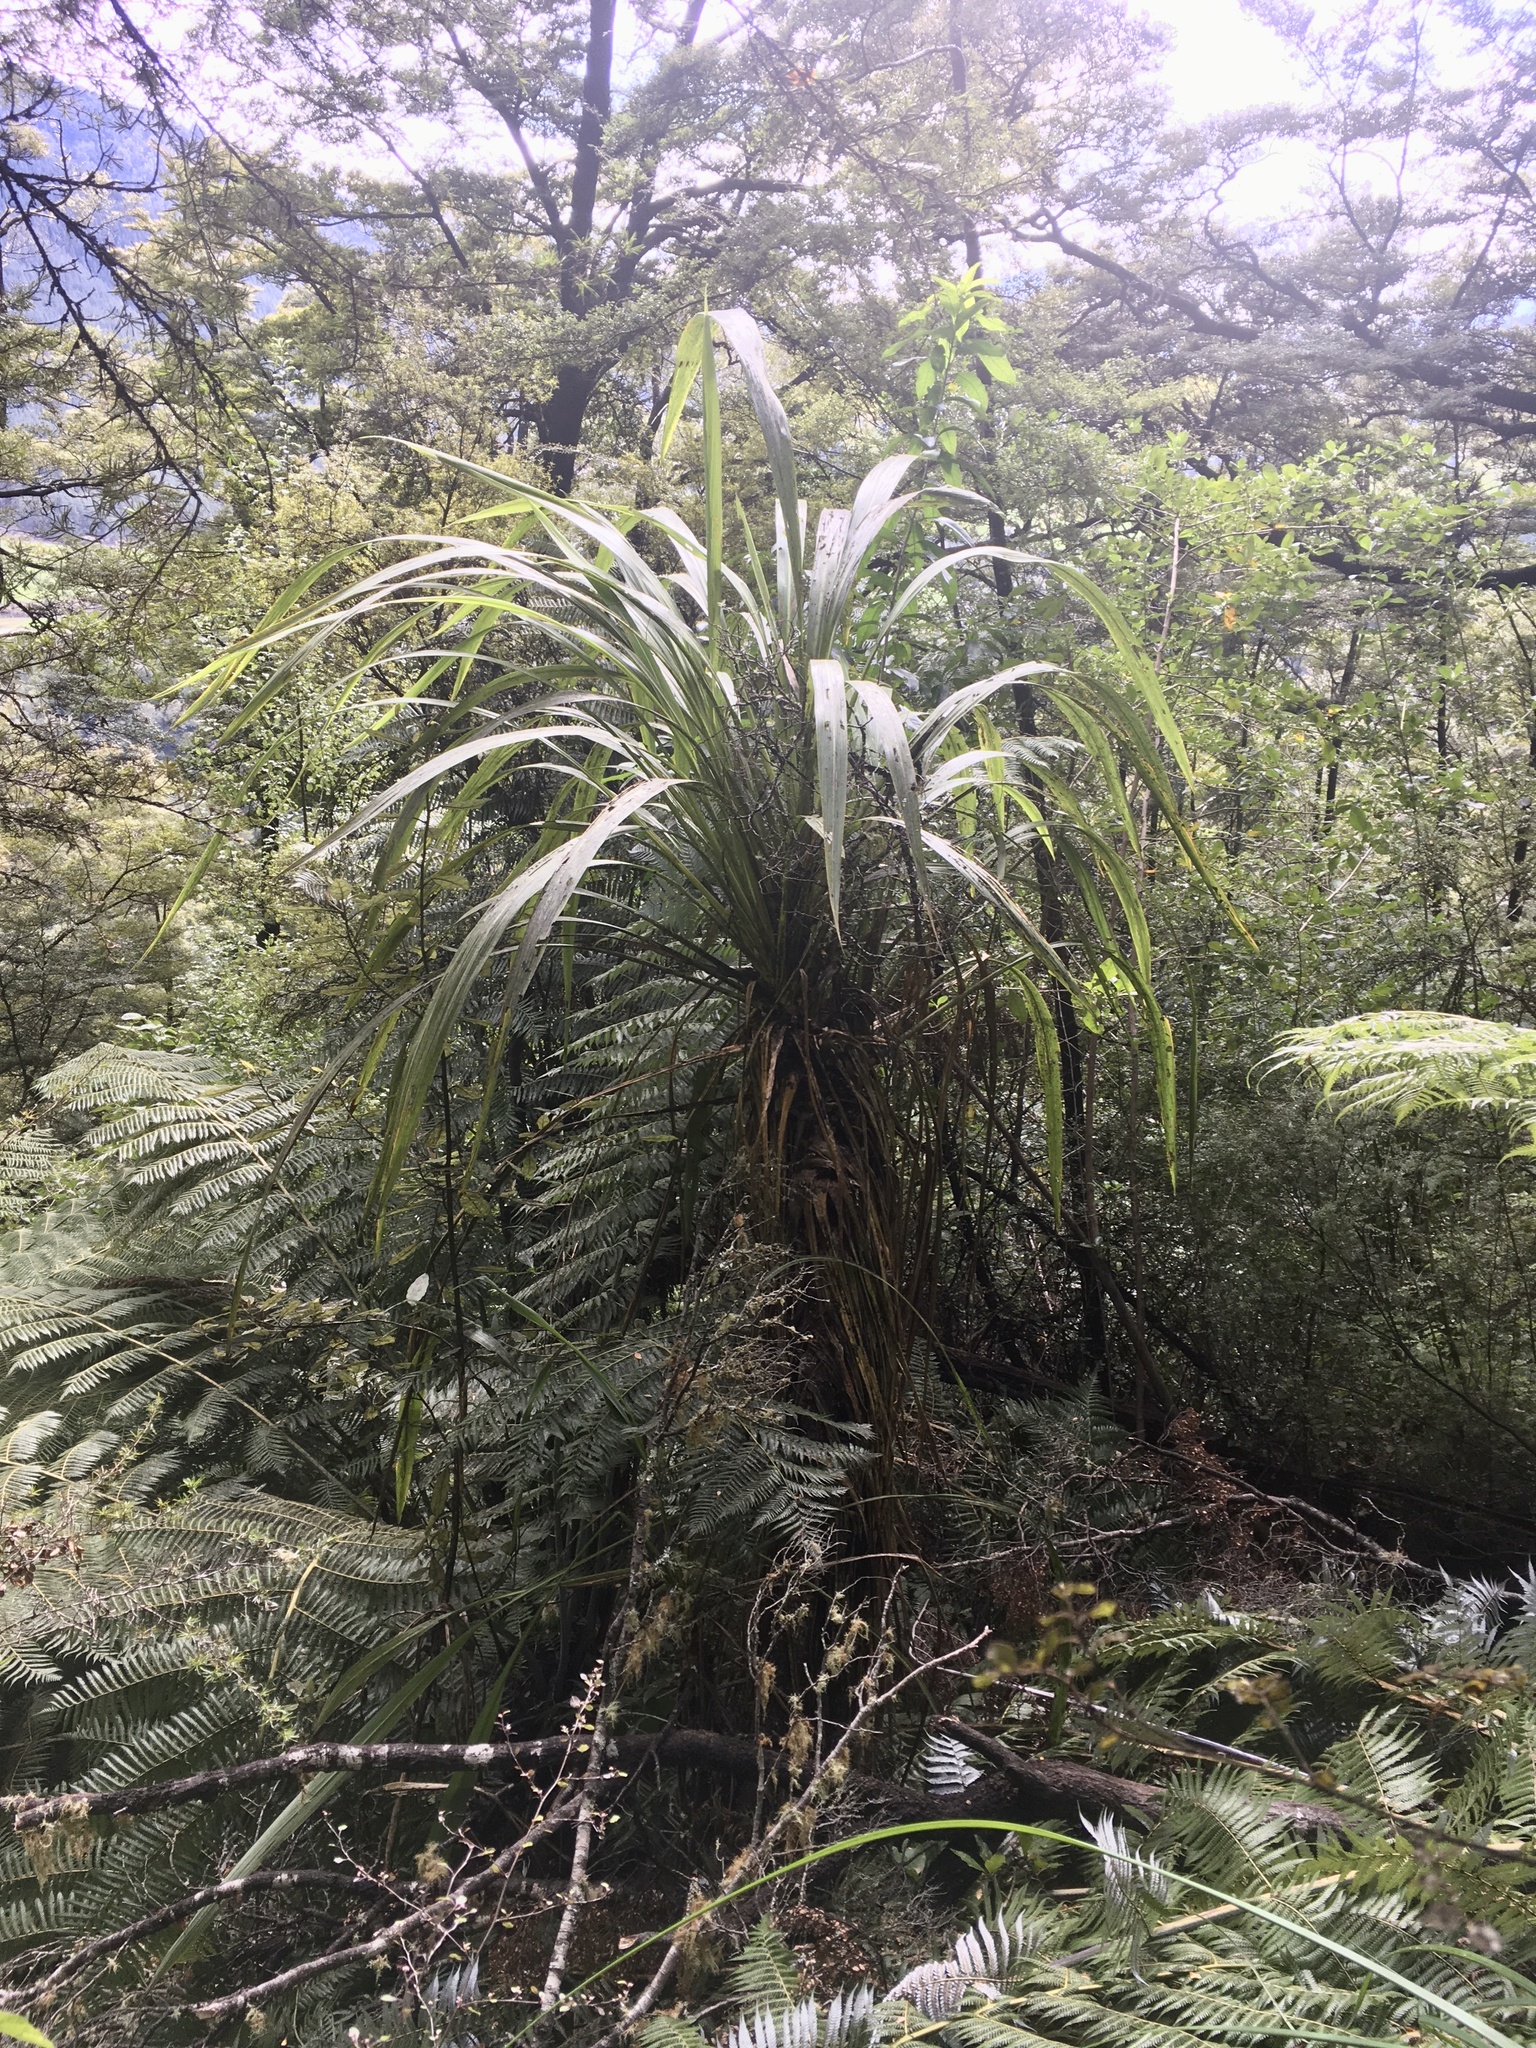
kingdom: Plantae
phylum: Tracheophyta
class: Liliopsida
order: Asparagales
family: Asparagaceae
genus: Cordyline
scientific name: Cordyline banksii
